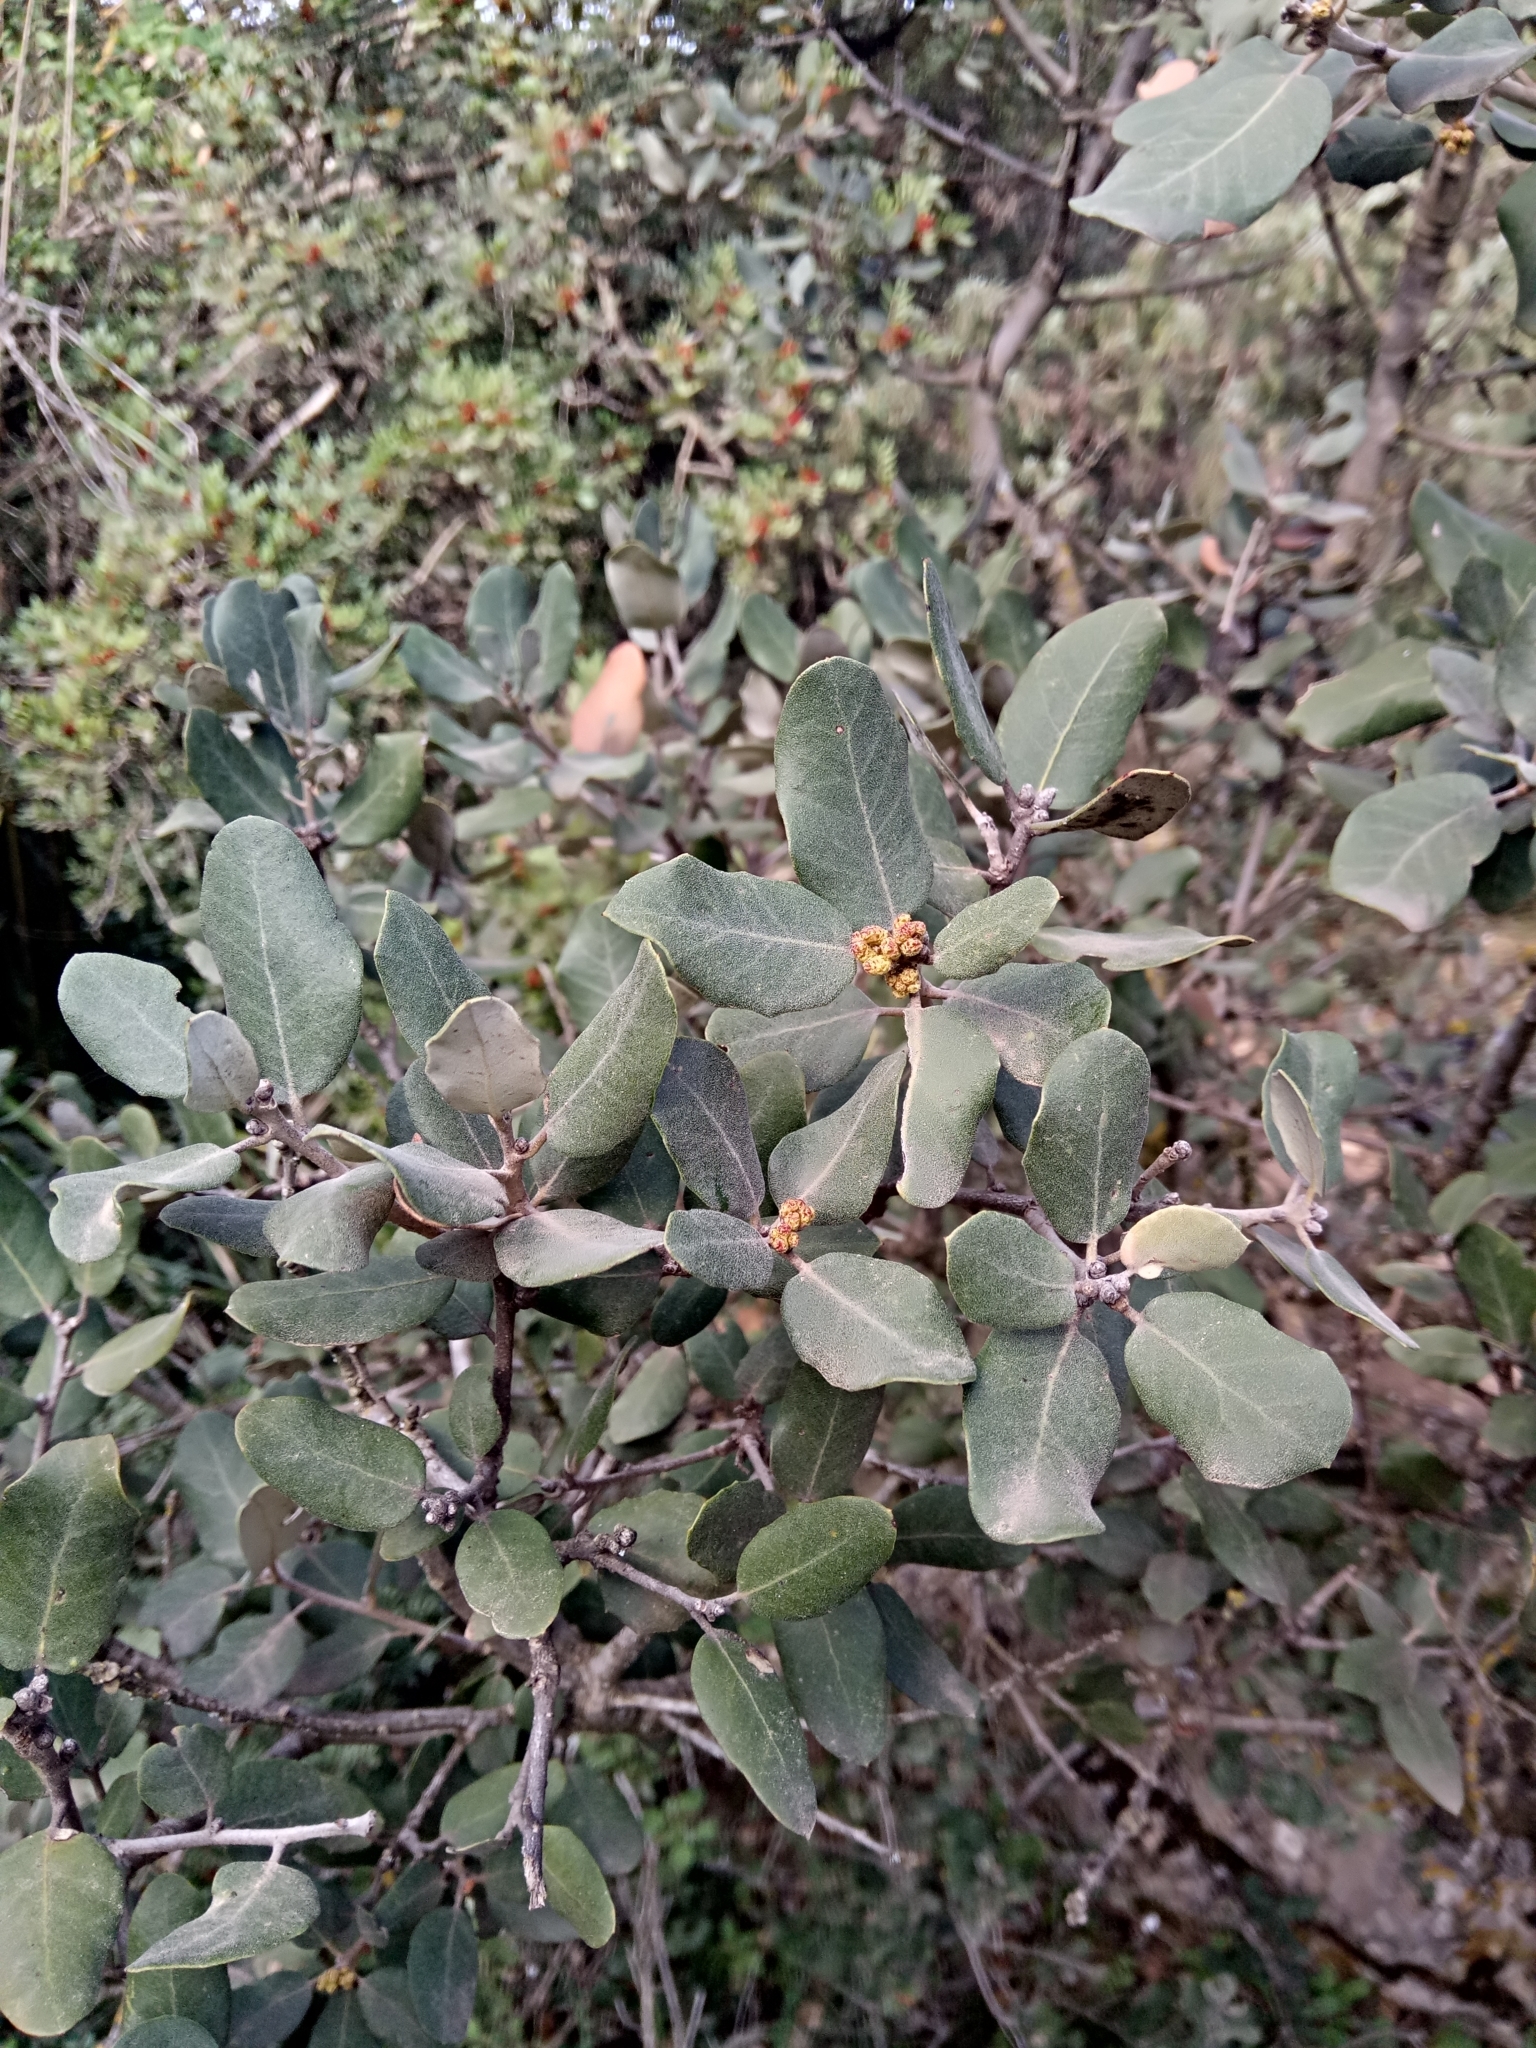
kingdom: Plantae
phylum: Tracheophyta
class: Magnoliopsida
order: Fagales
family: Fagaceae
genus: Quercus
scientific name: Quercus rotundifolia
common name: Holm oak
